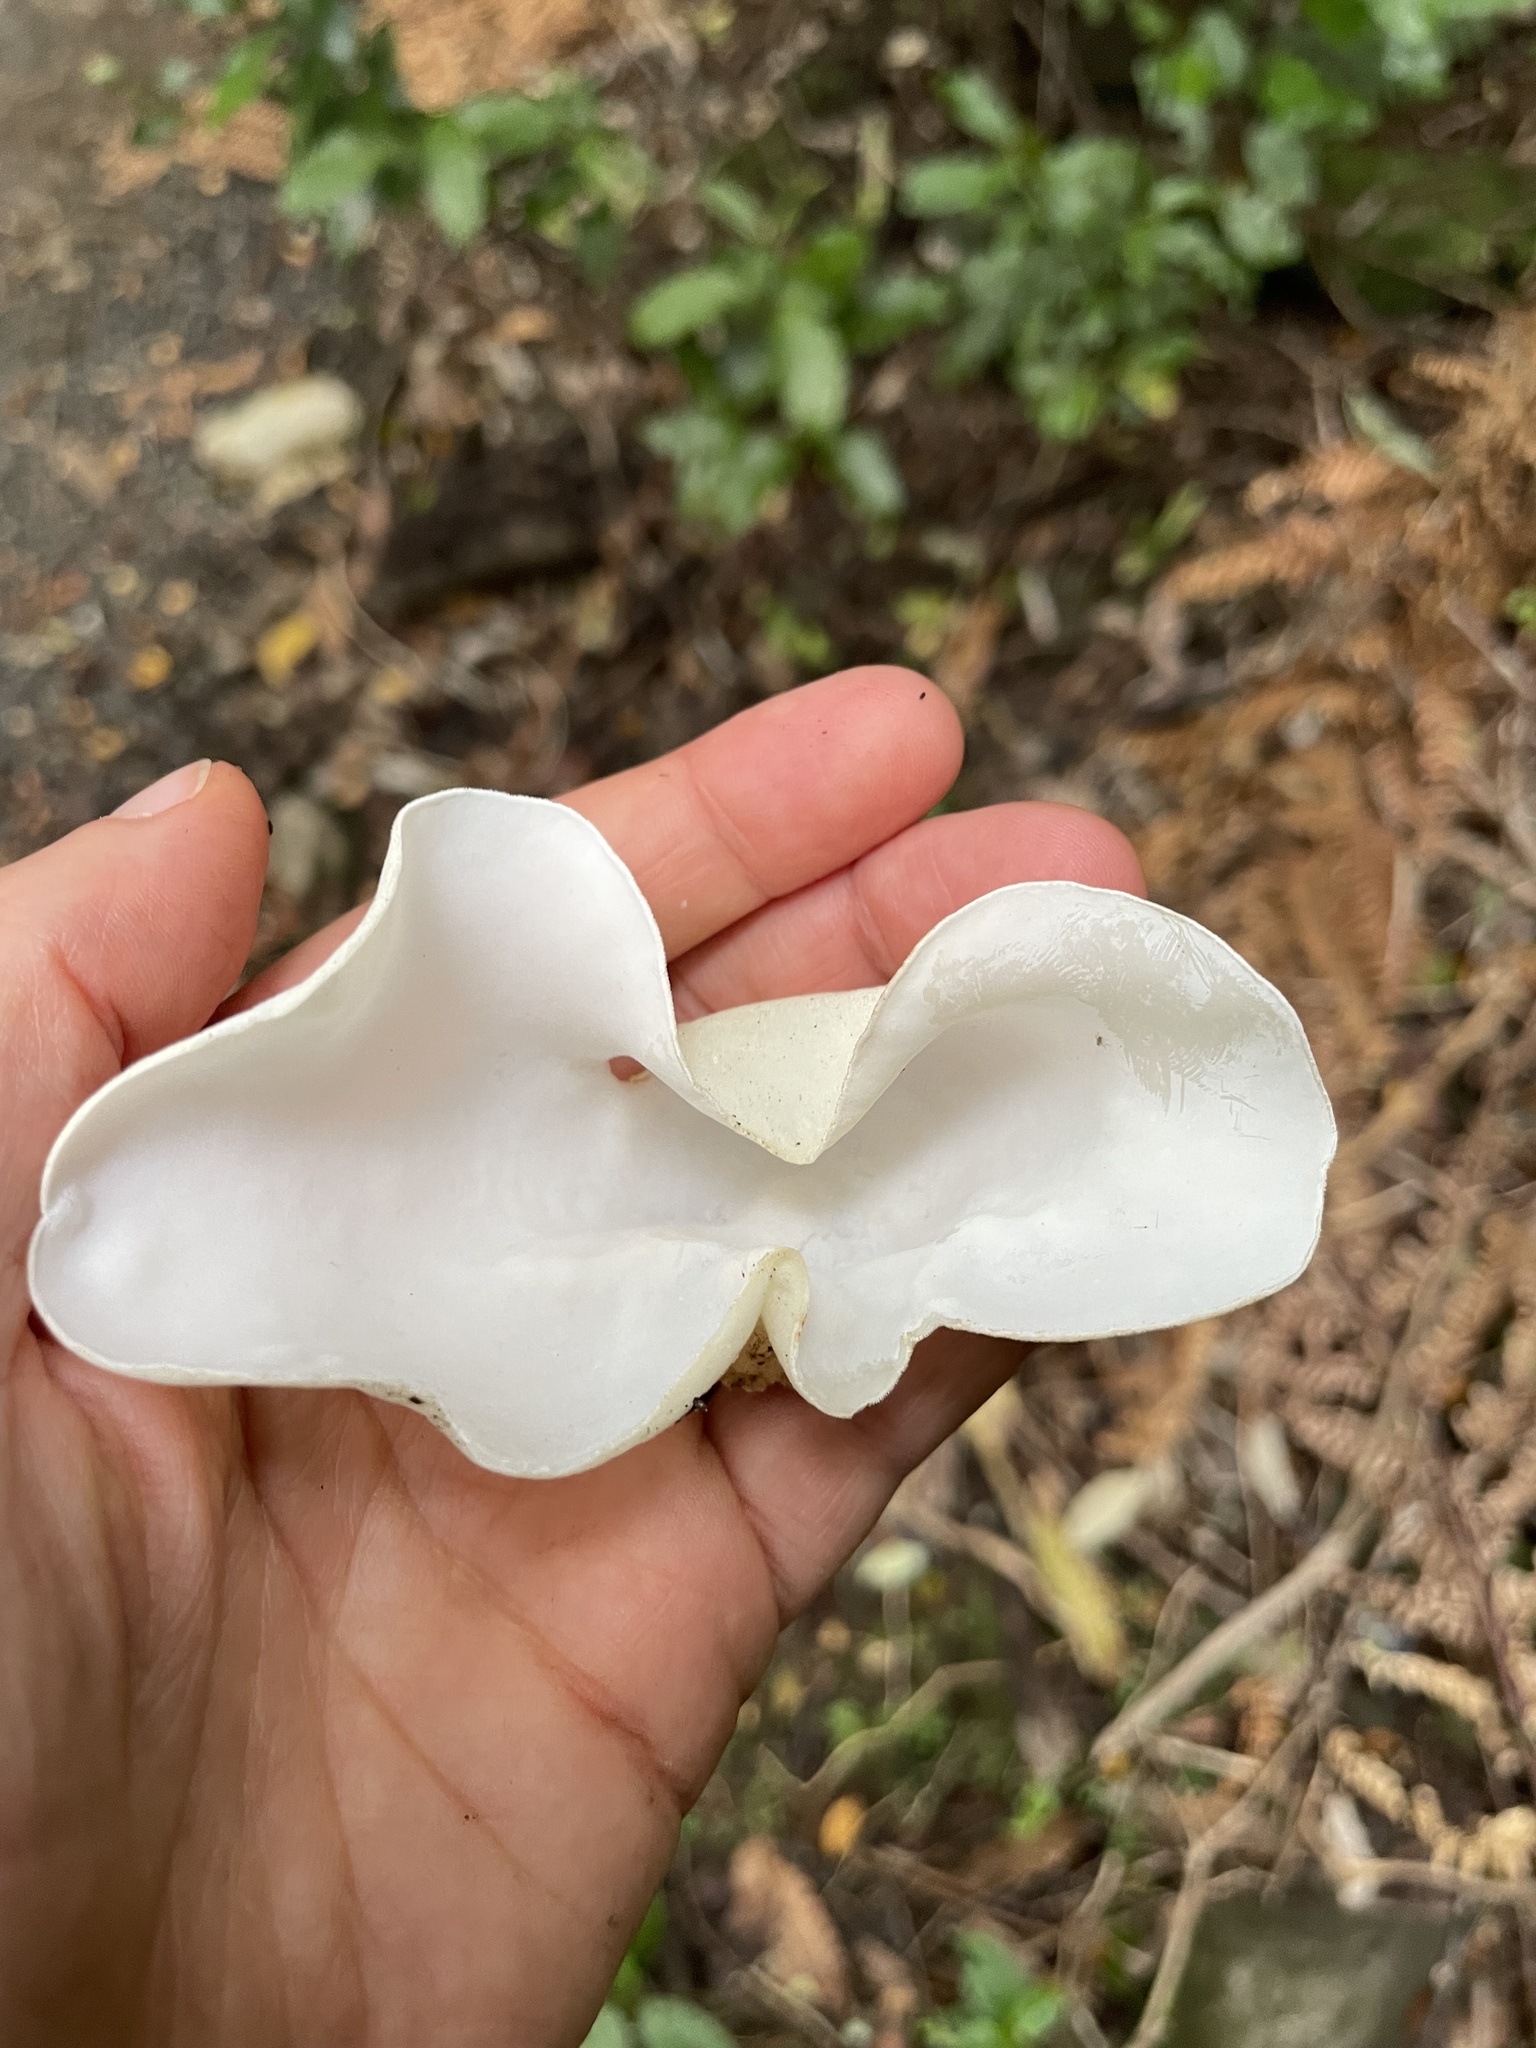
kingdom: Fungi
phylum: Basidiomycota
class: Agaricomycetes
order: Auriculariales
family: Auriculariaceae
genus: Auricularia
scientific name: Auricularia cornea
